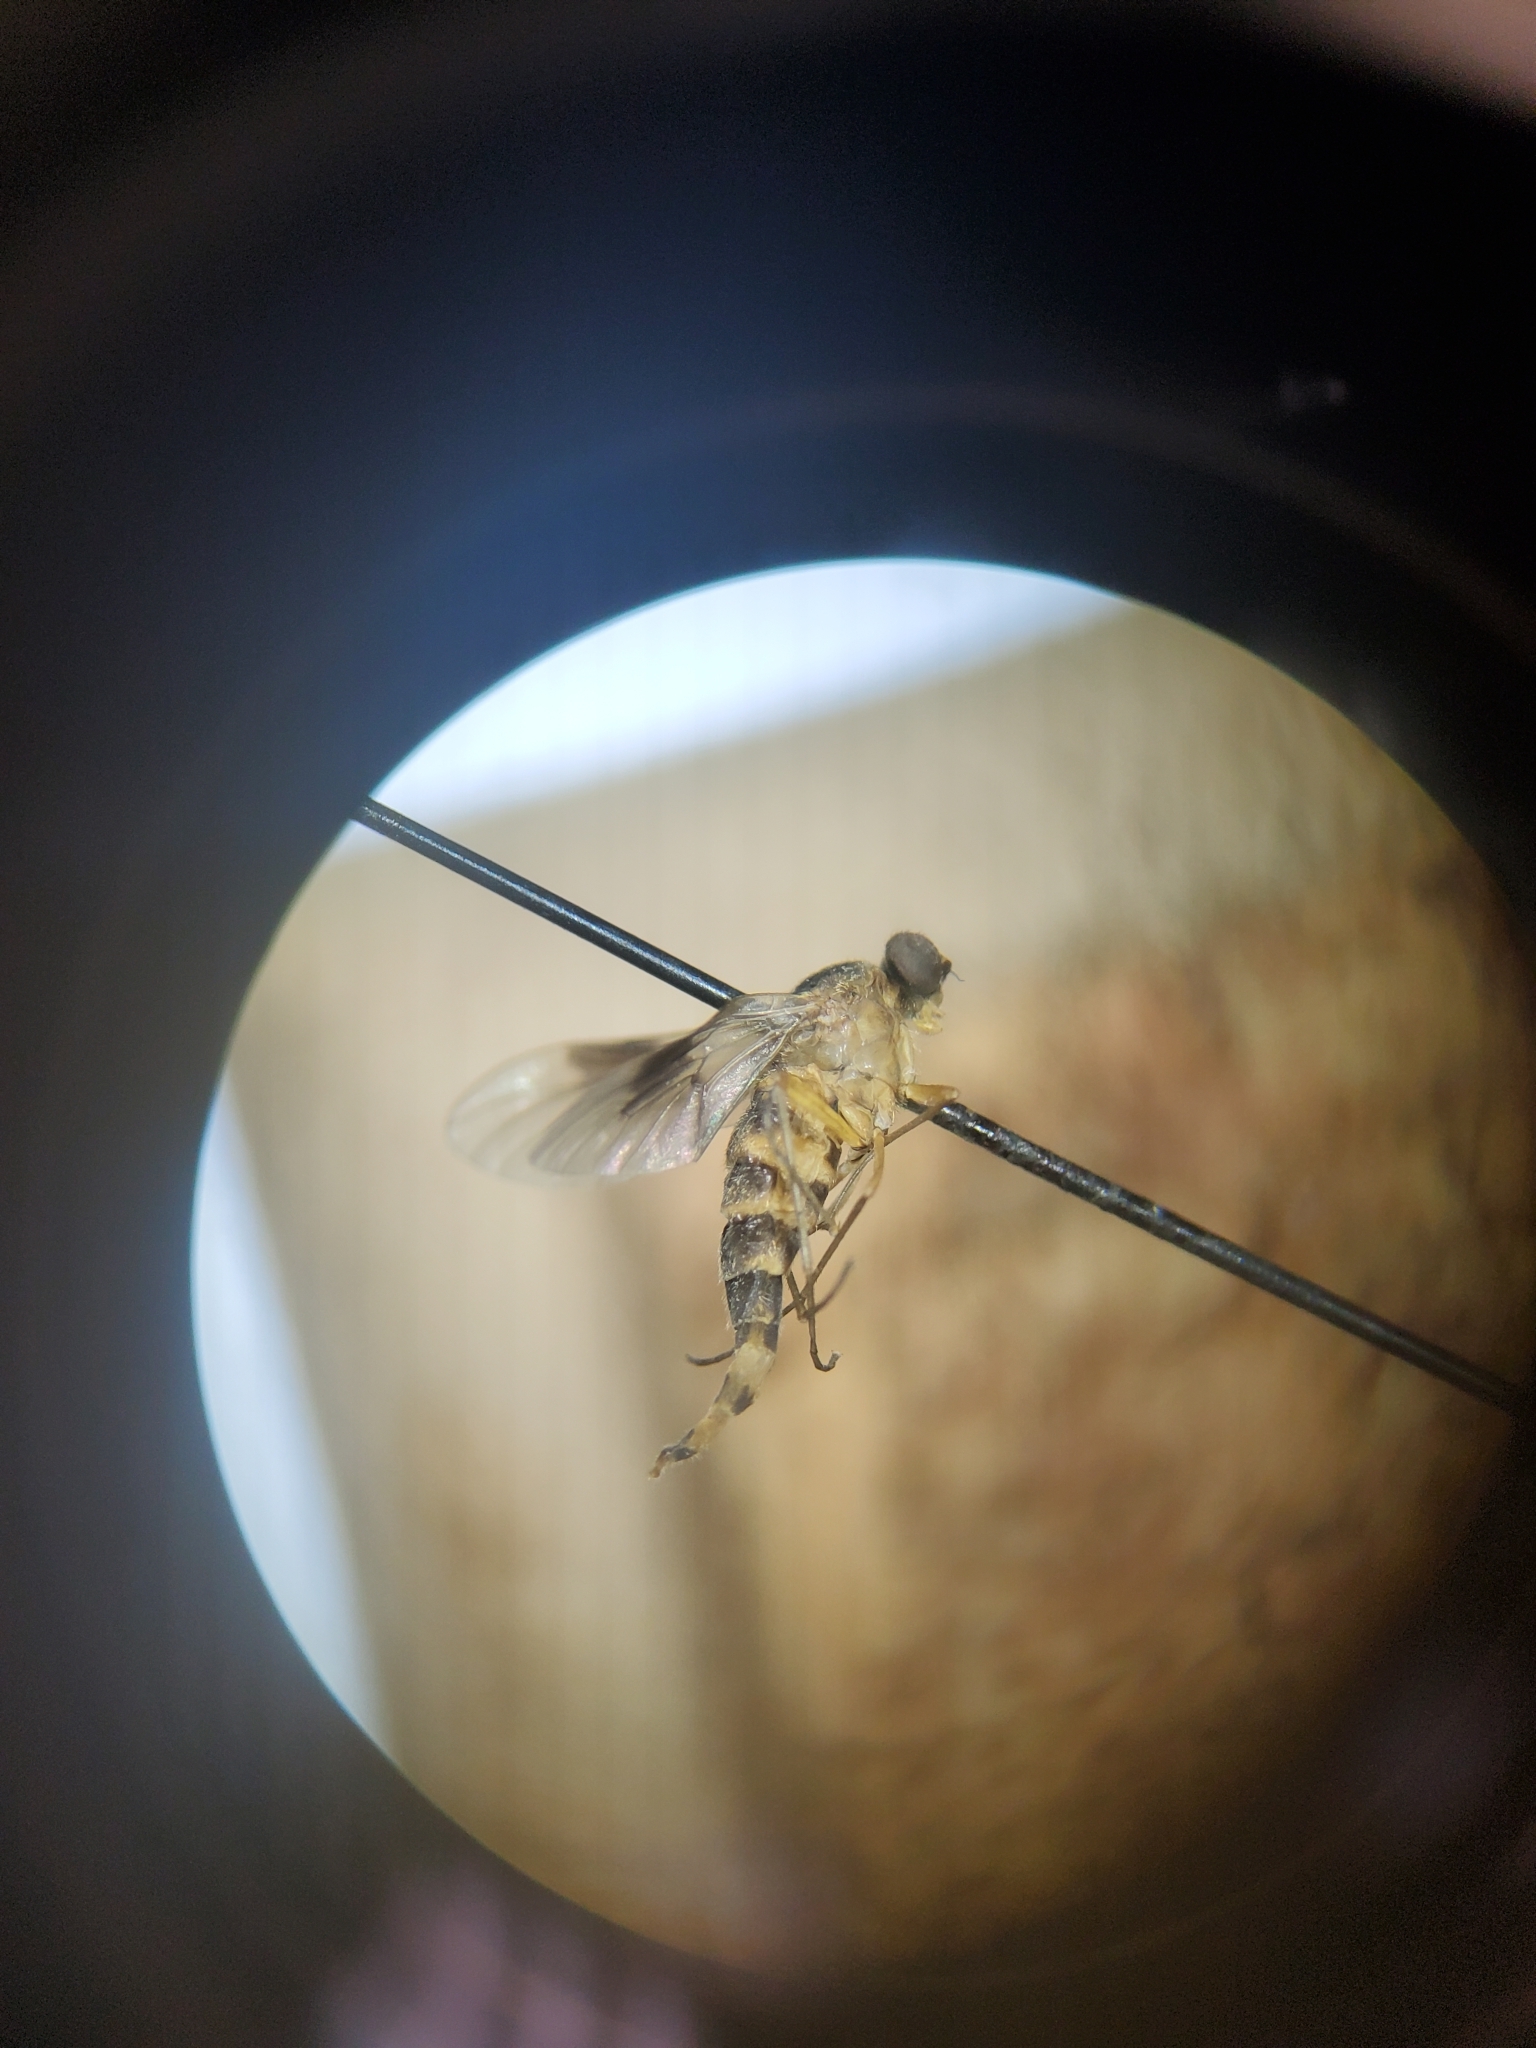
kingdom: Animalia
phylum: Arthropoda
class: Insecta
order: Diptera
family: Rhagionidae
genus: Chrysopilus
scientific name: Chrysopilus quadratus
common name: Quadrate snipe fly
